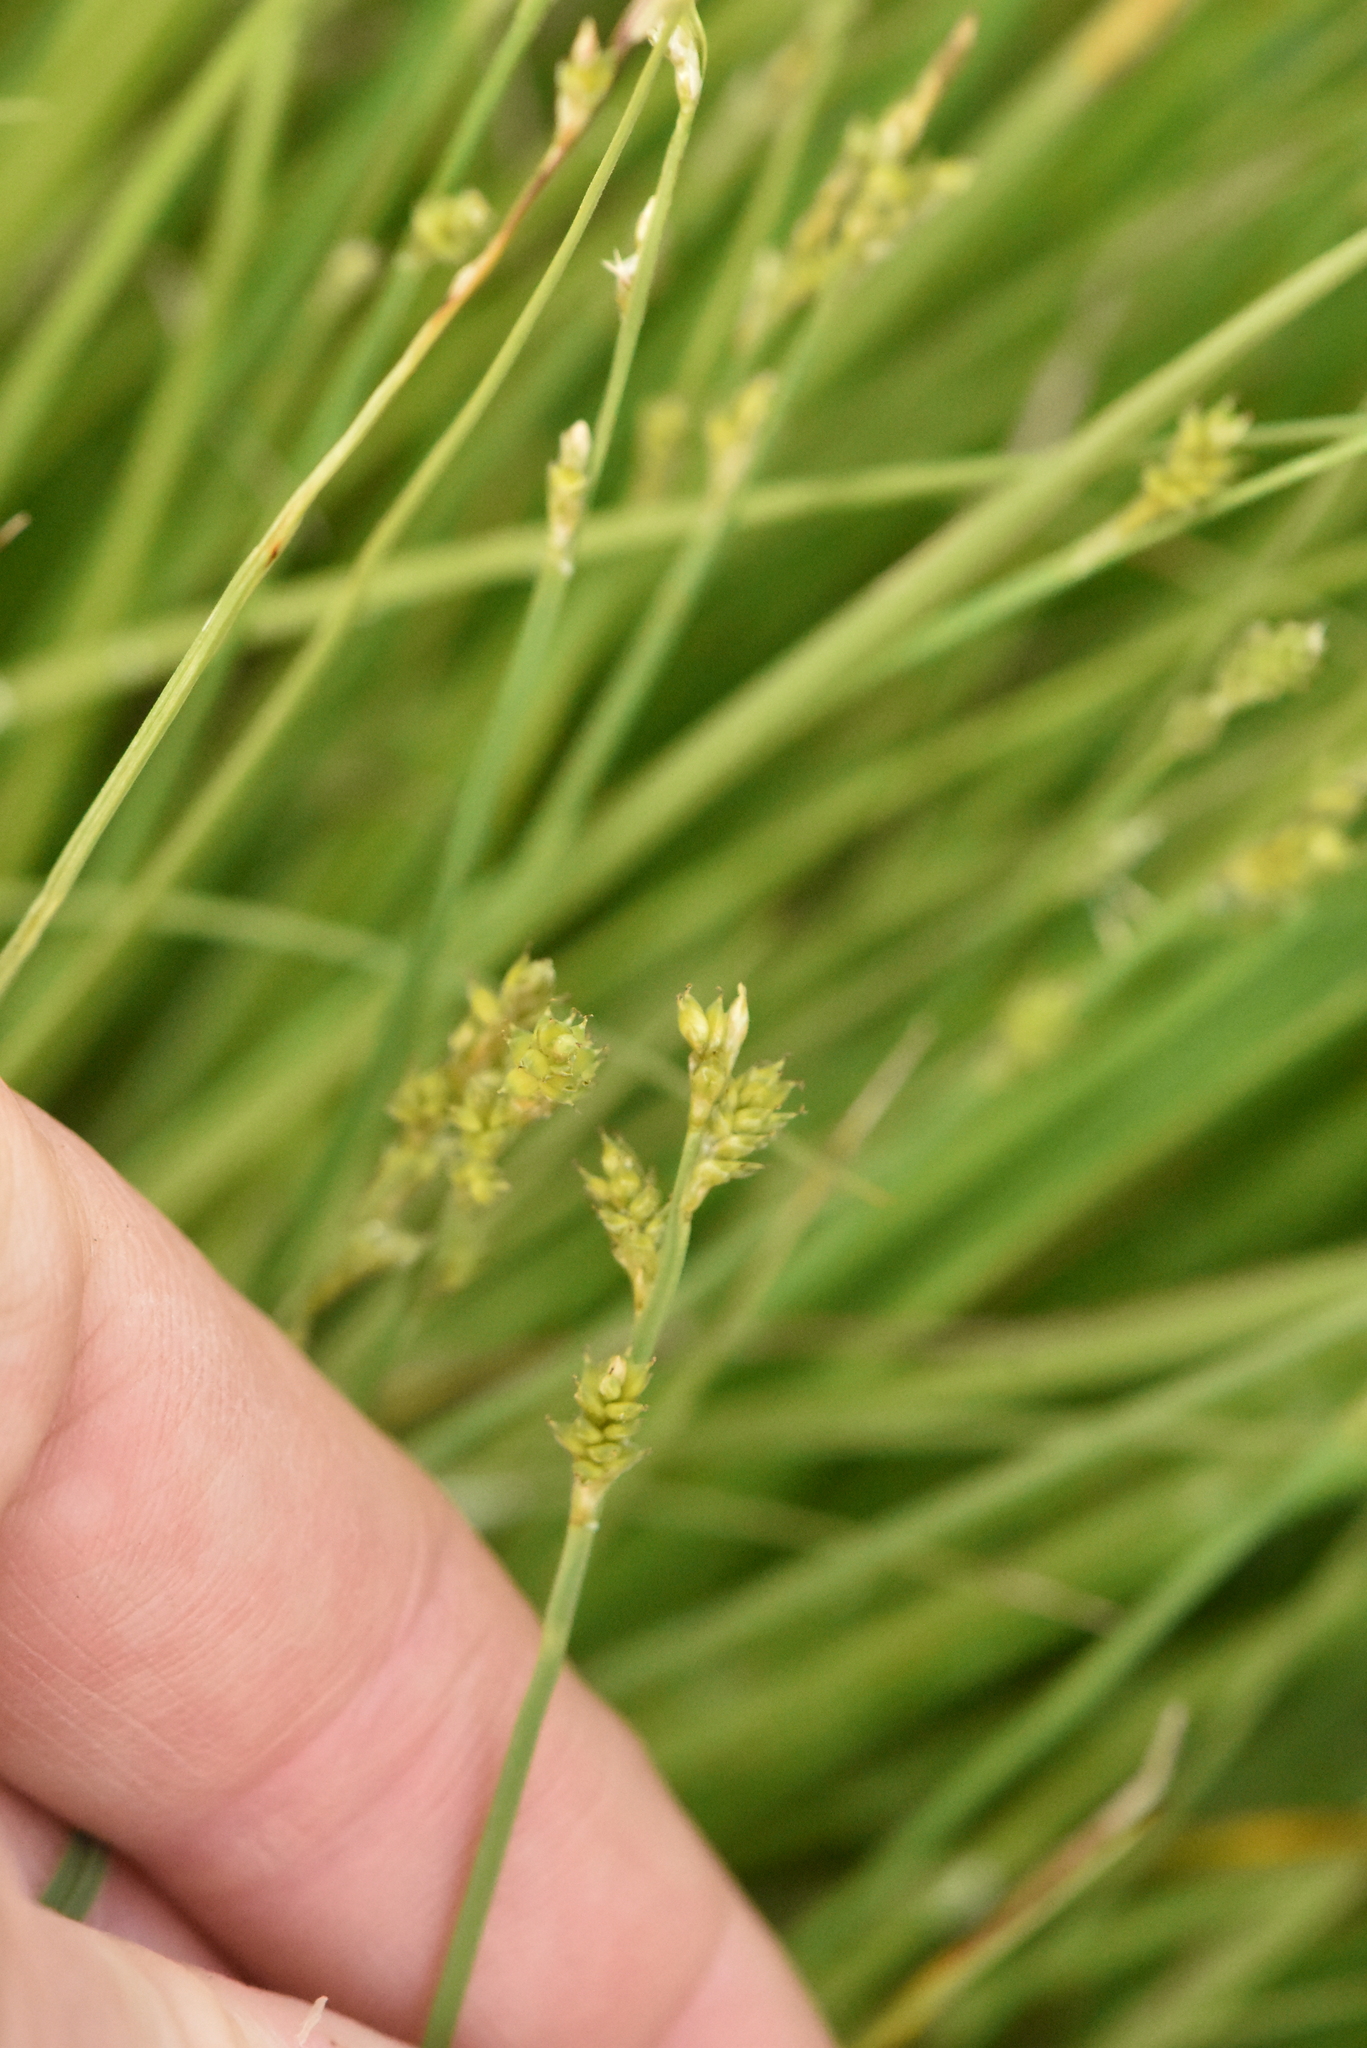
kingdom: Plantae
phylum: Tracheophyta
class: Liliopsida
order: Poales
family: Cyperaceae
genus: Carex
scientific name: Carex canescens
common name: White sedge
